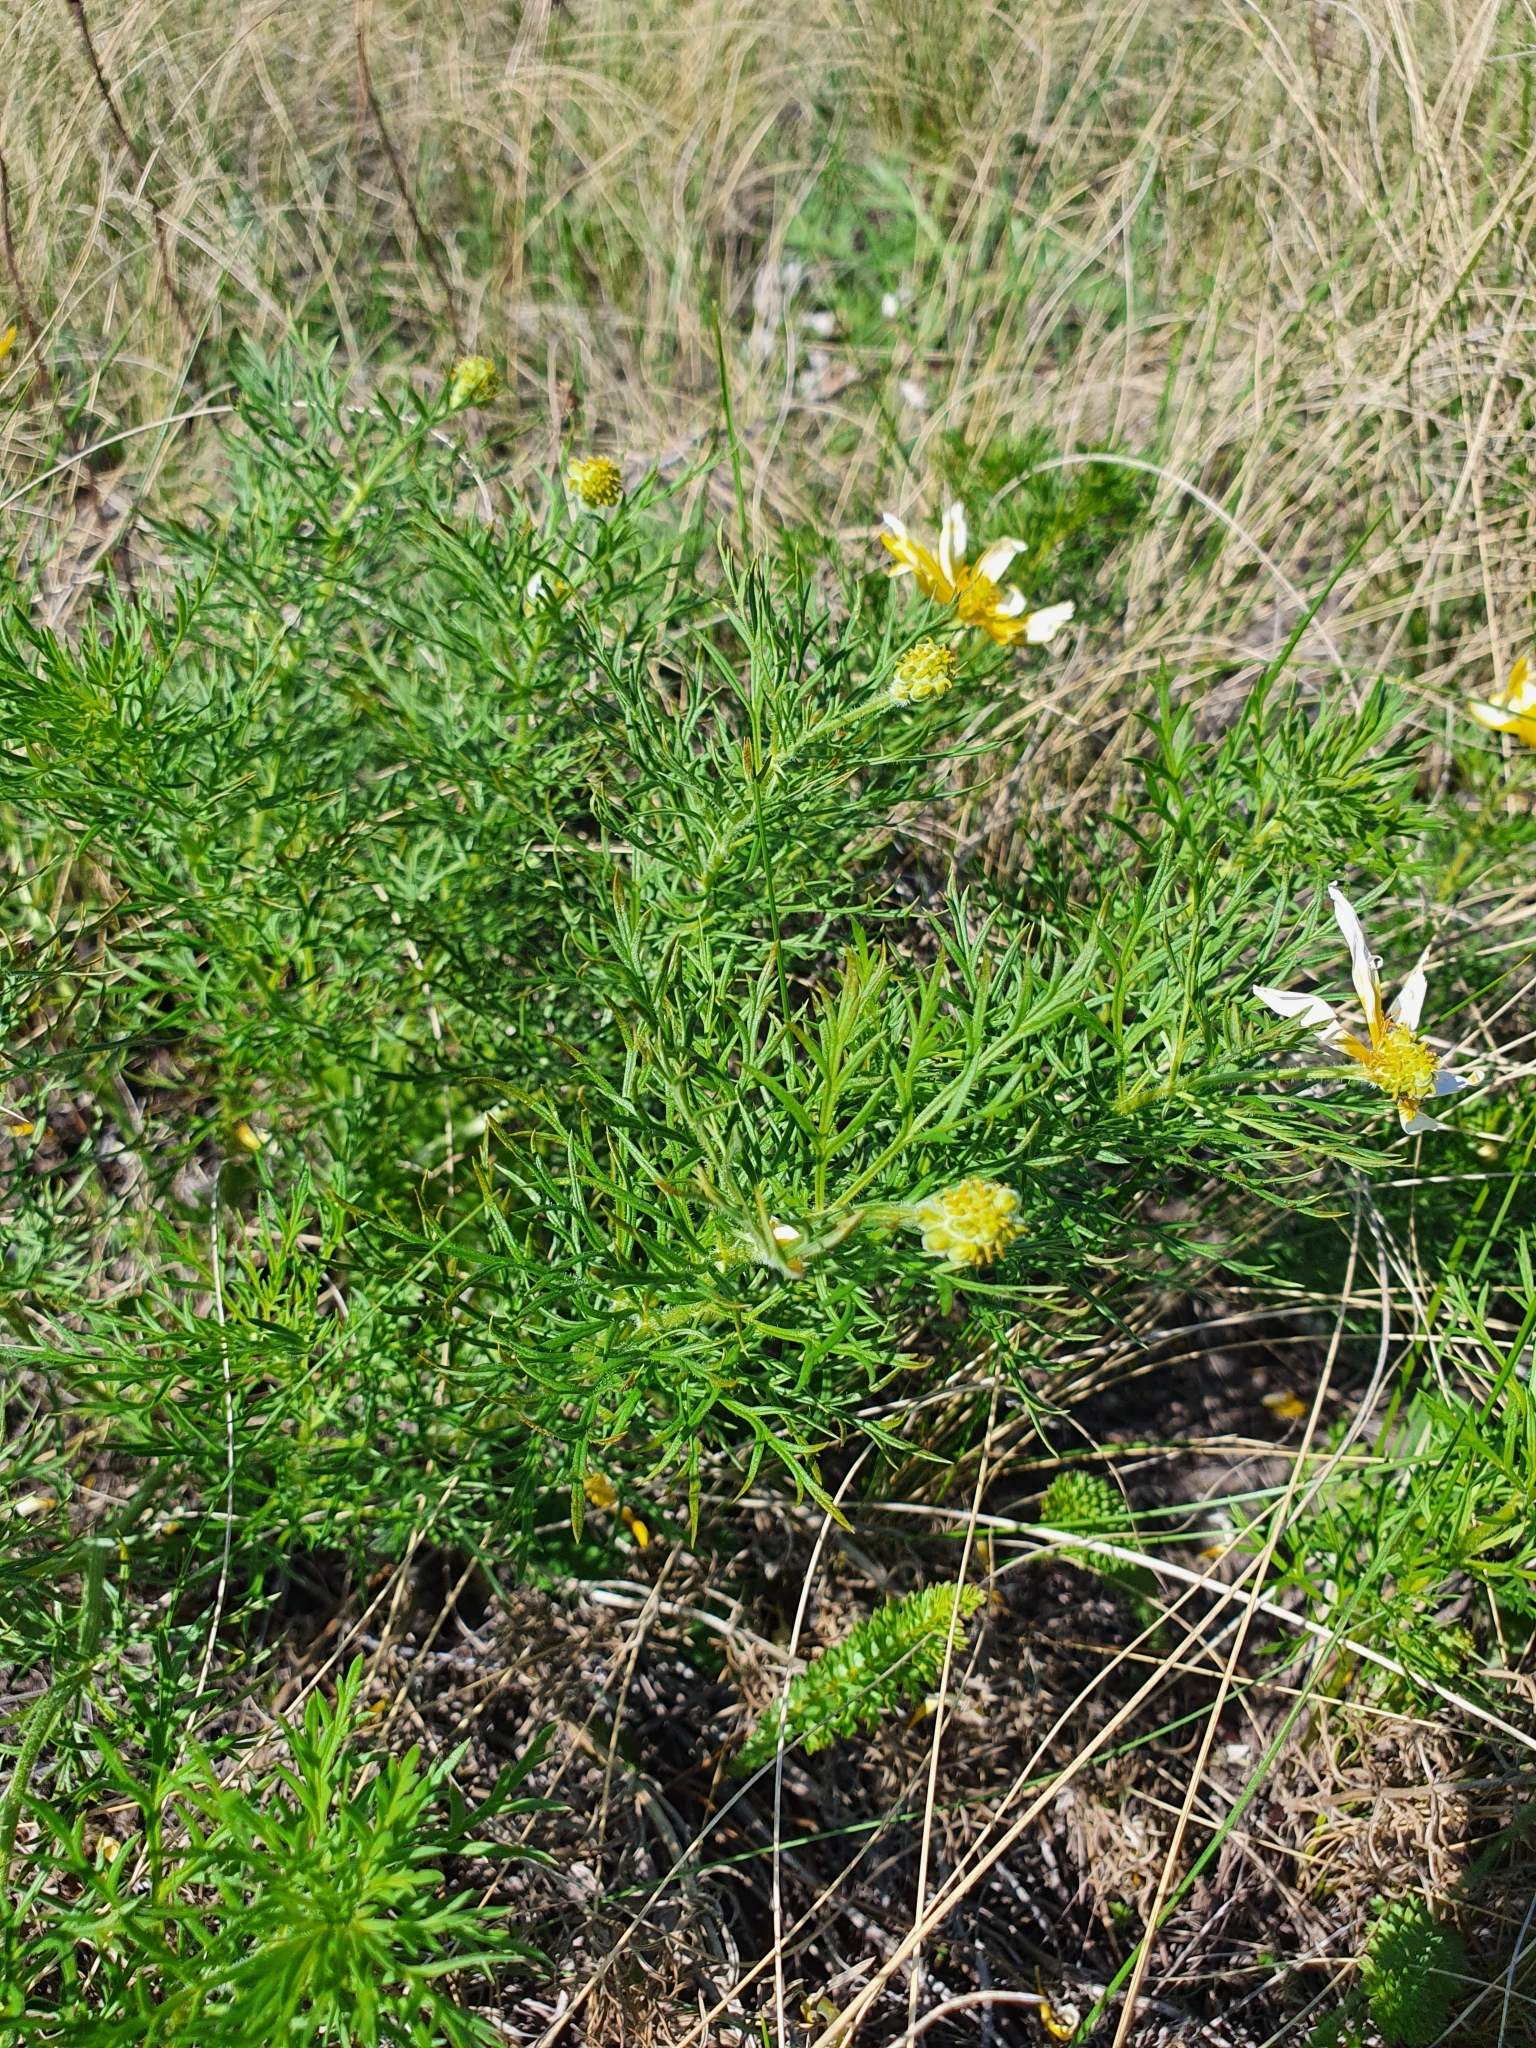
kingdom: Plantae
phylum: Tracheophyta
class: Magnoliopsida
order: Ranunculales
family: Ranunculaceae
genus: Adonis
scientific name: Adonis volgensis
